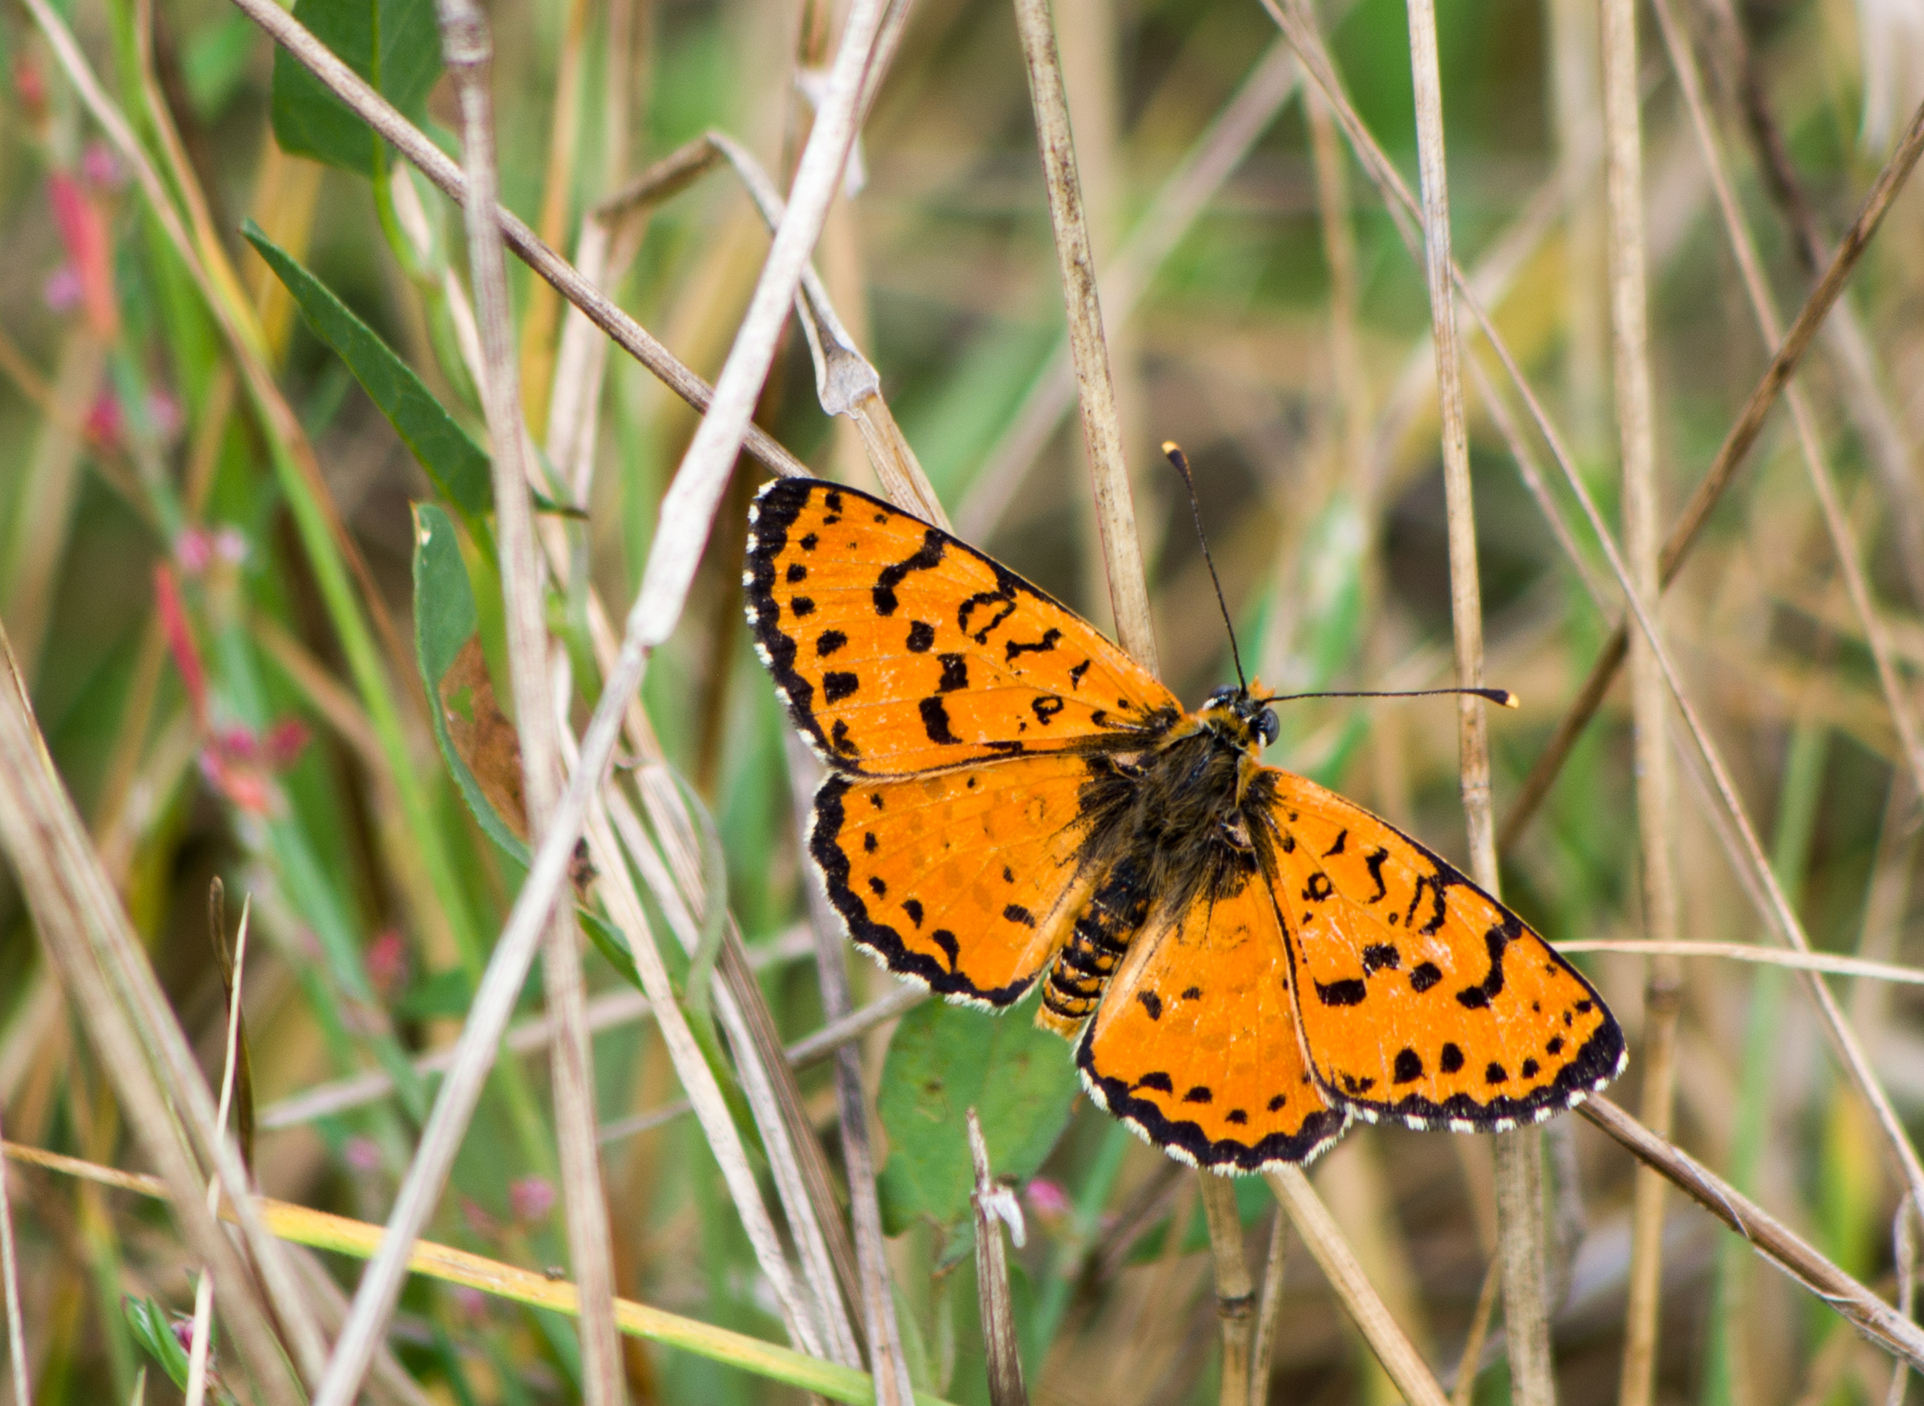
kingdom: Animalia
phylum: Arthropoda
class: Insecta
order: Lepidoptera
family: Nymphalidae
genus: Melitaea
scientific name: Melitaea didyma
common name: Spotted fritillary
